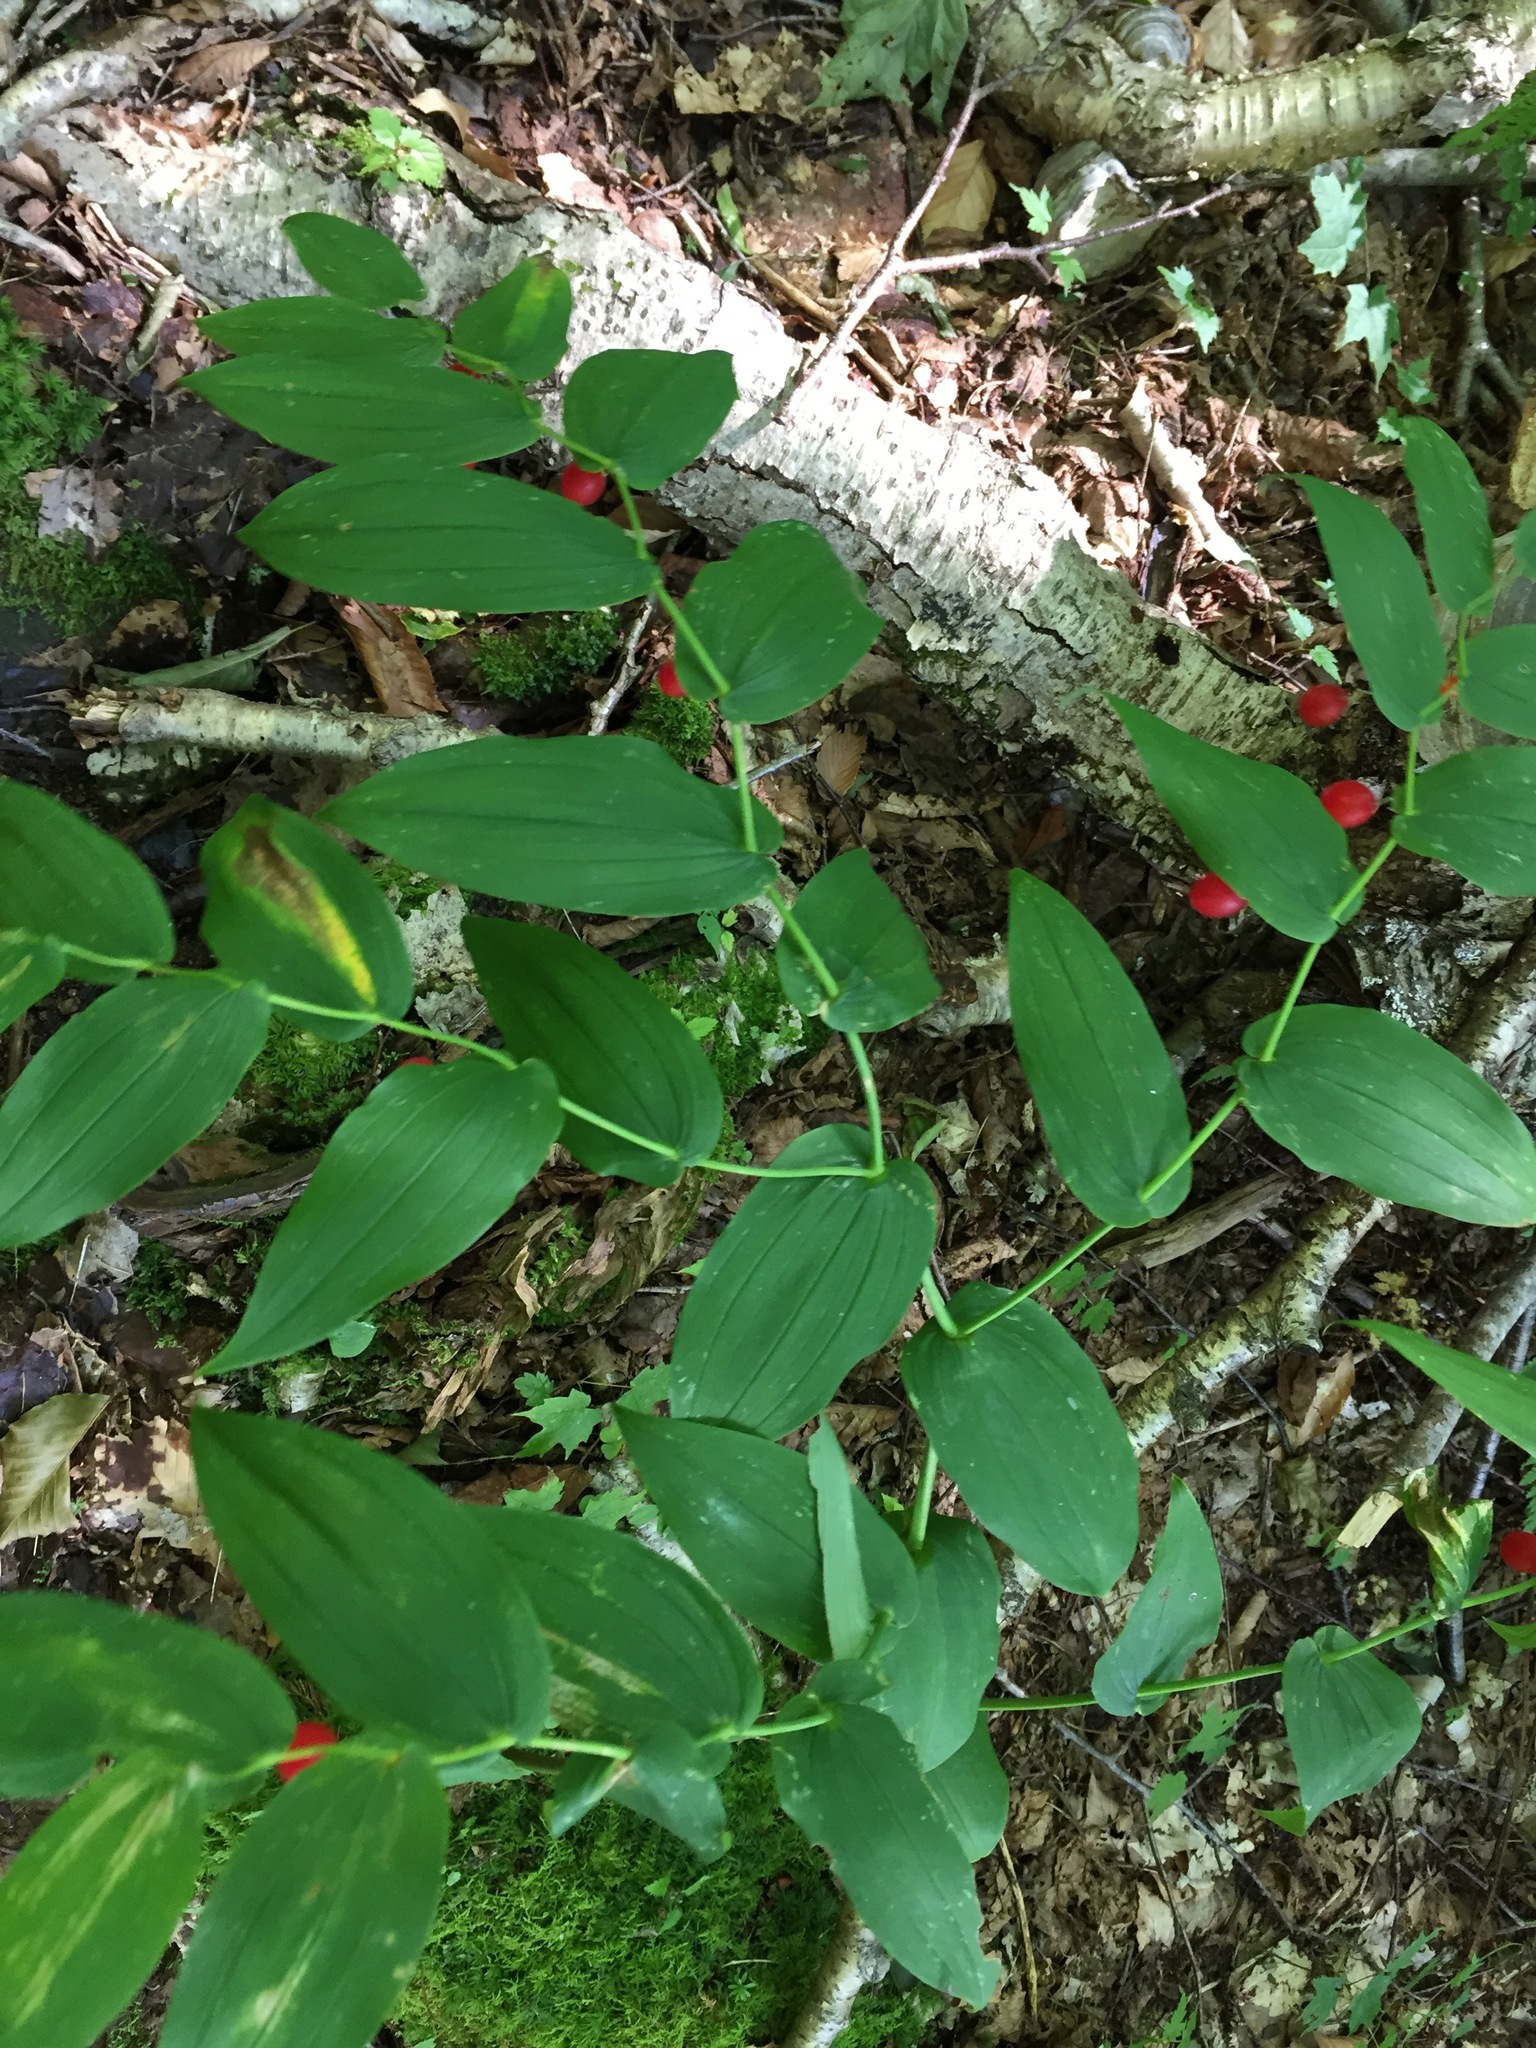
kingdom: Plantae
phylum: Tracheophyta
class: Liliopsida
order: Liliales
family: Liliaceae
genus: Streptopus
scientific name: Streptopus amplexifolius
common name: Clasp twisted stalk
